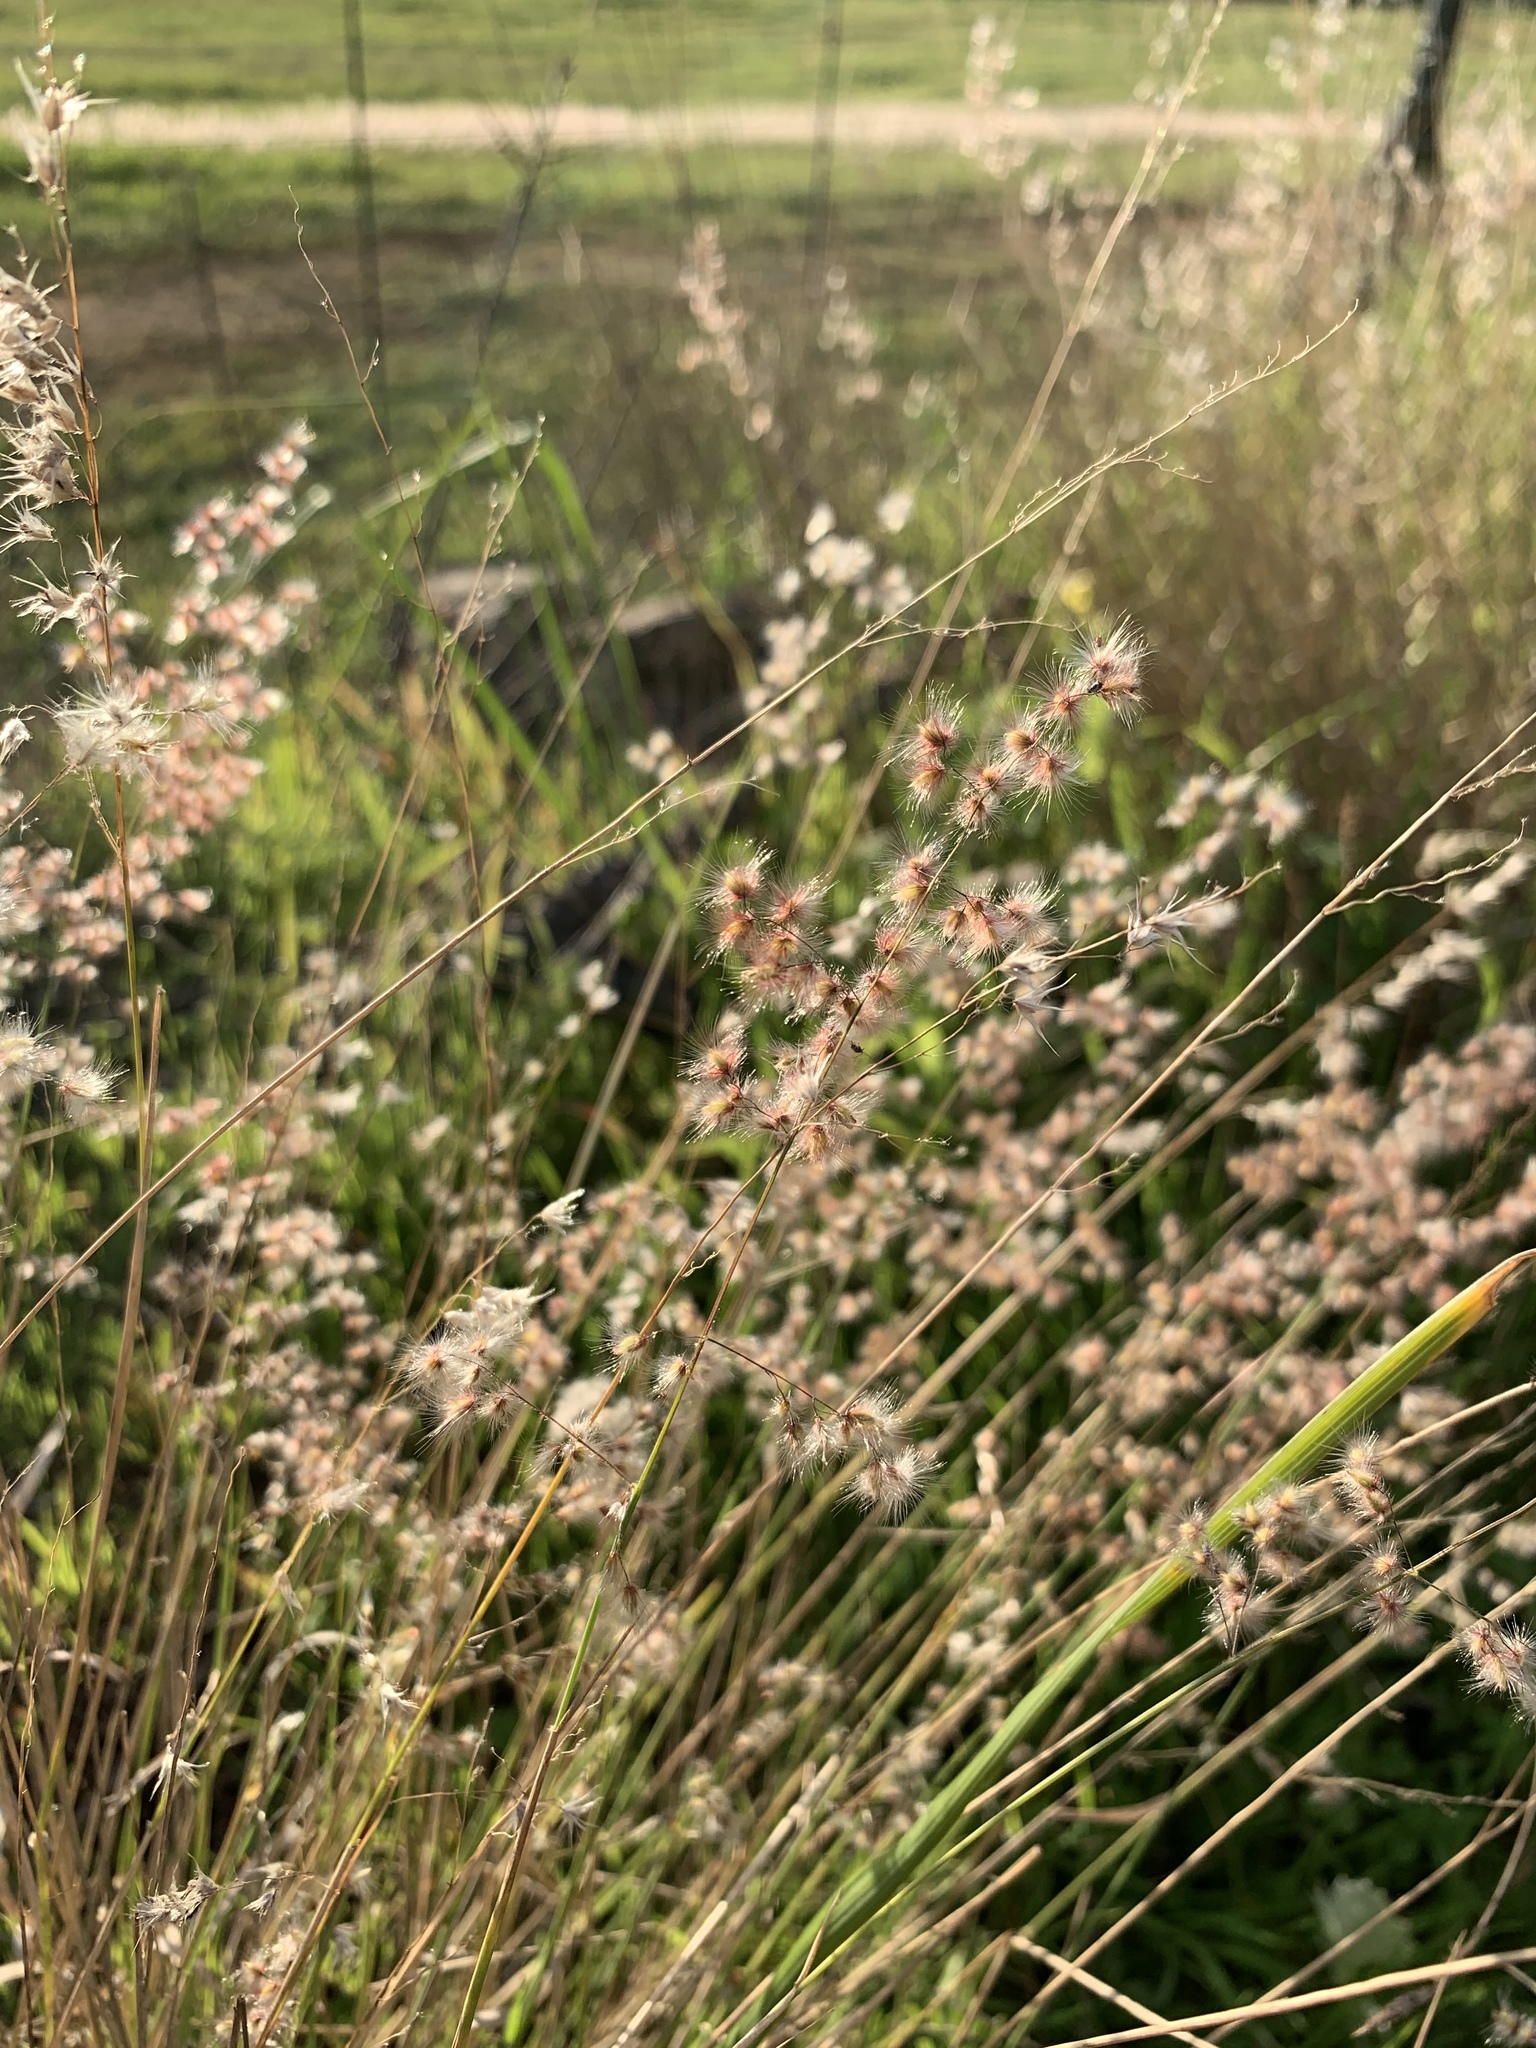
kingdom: Plantae
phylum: Tracheophyta
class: Liliopsida
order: Poales
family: Poaceae
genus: Melinis
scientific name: Melinis repens
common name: Rose natal grass
